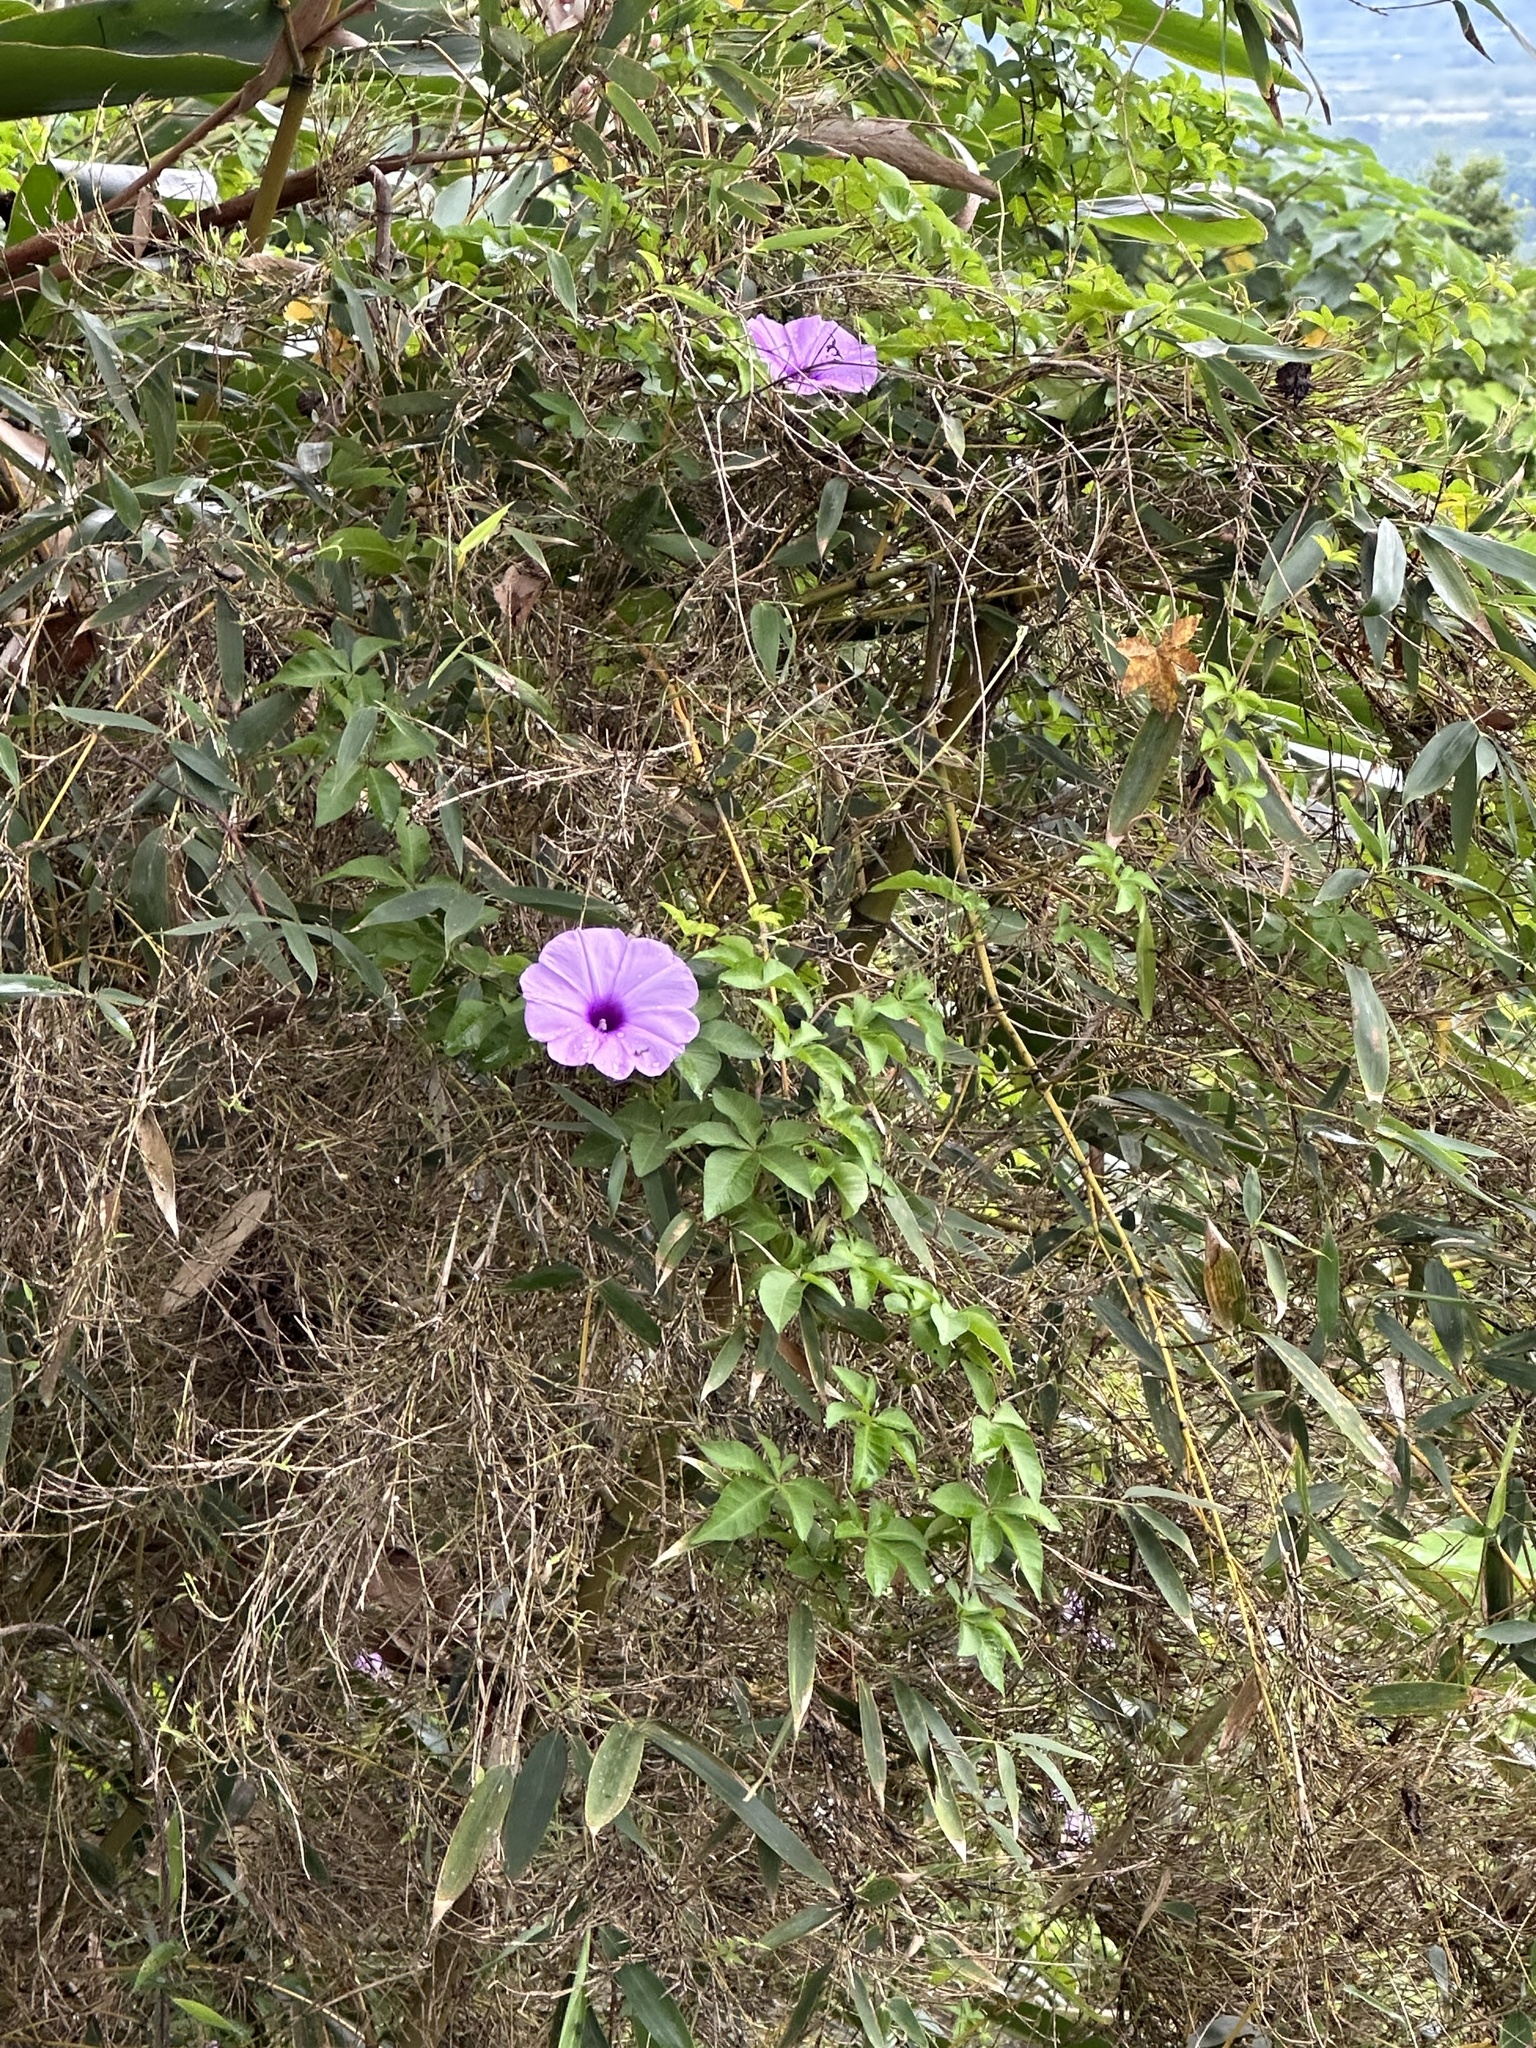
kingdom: Plantae
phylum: Tracheophyta
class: Magnoliopsida
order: Solanales
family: Convolvulaceae
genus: Ipomoea
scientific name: Ipomoea cairica
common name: Mile a minute vine
